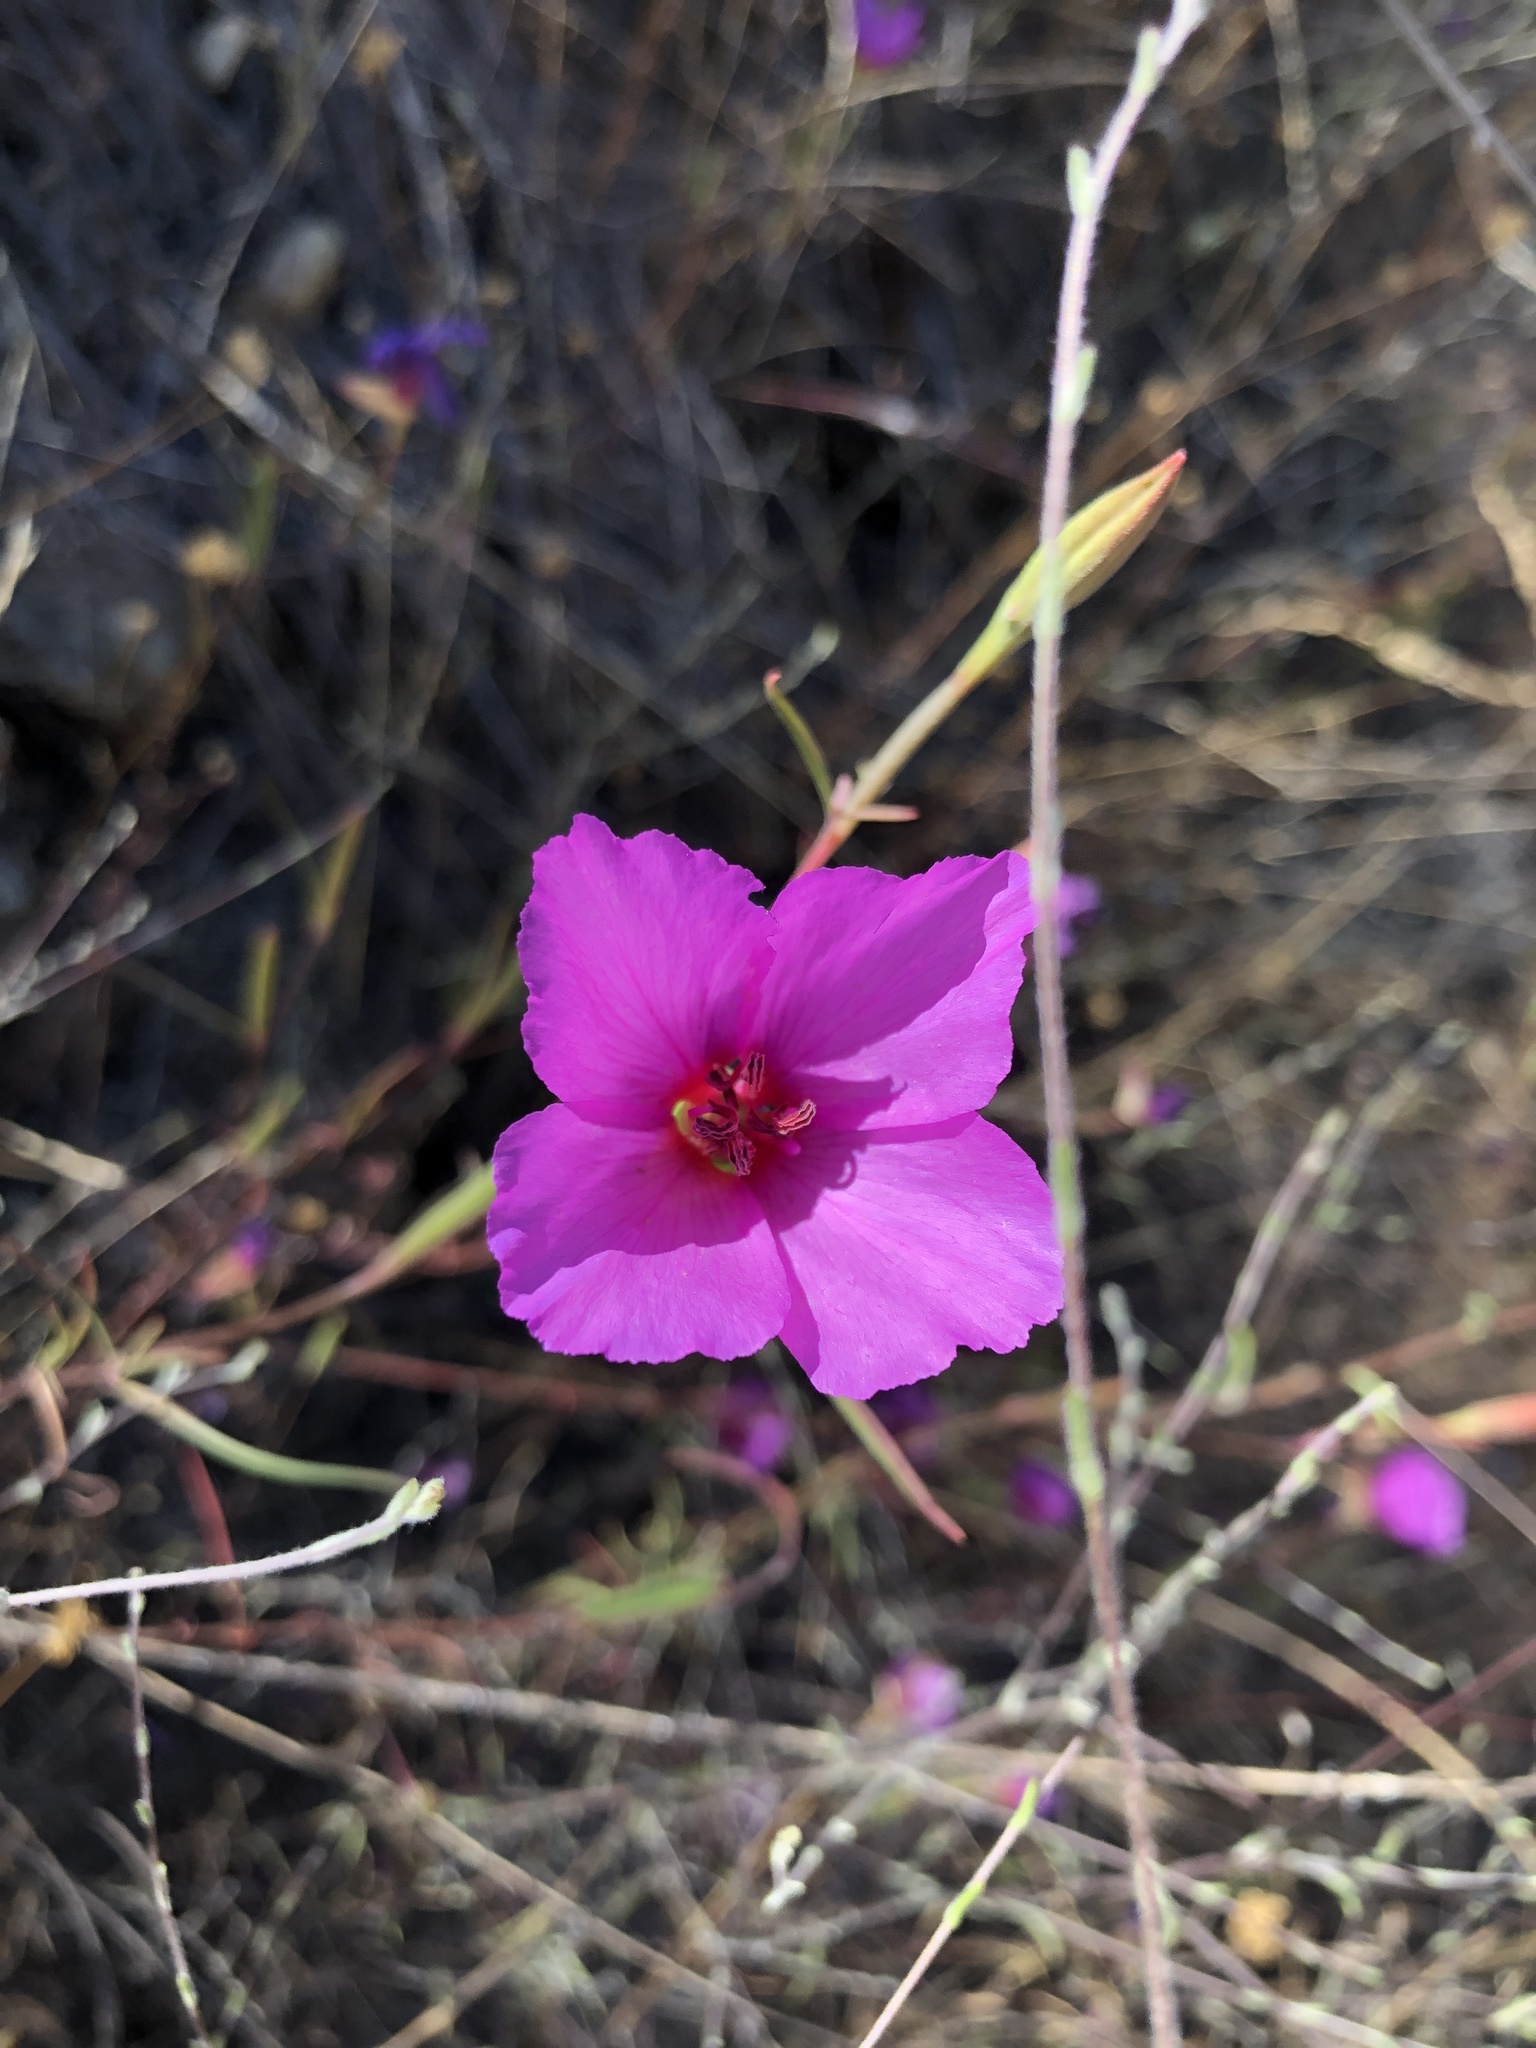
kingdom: Plantae
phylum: Tracheophyta
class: Magnoliopsida
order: Myrtales
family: Onagraceae
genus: Clarkia
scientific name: Clarkia rubicunda
